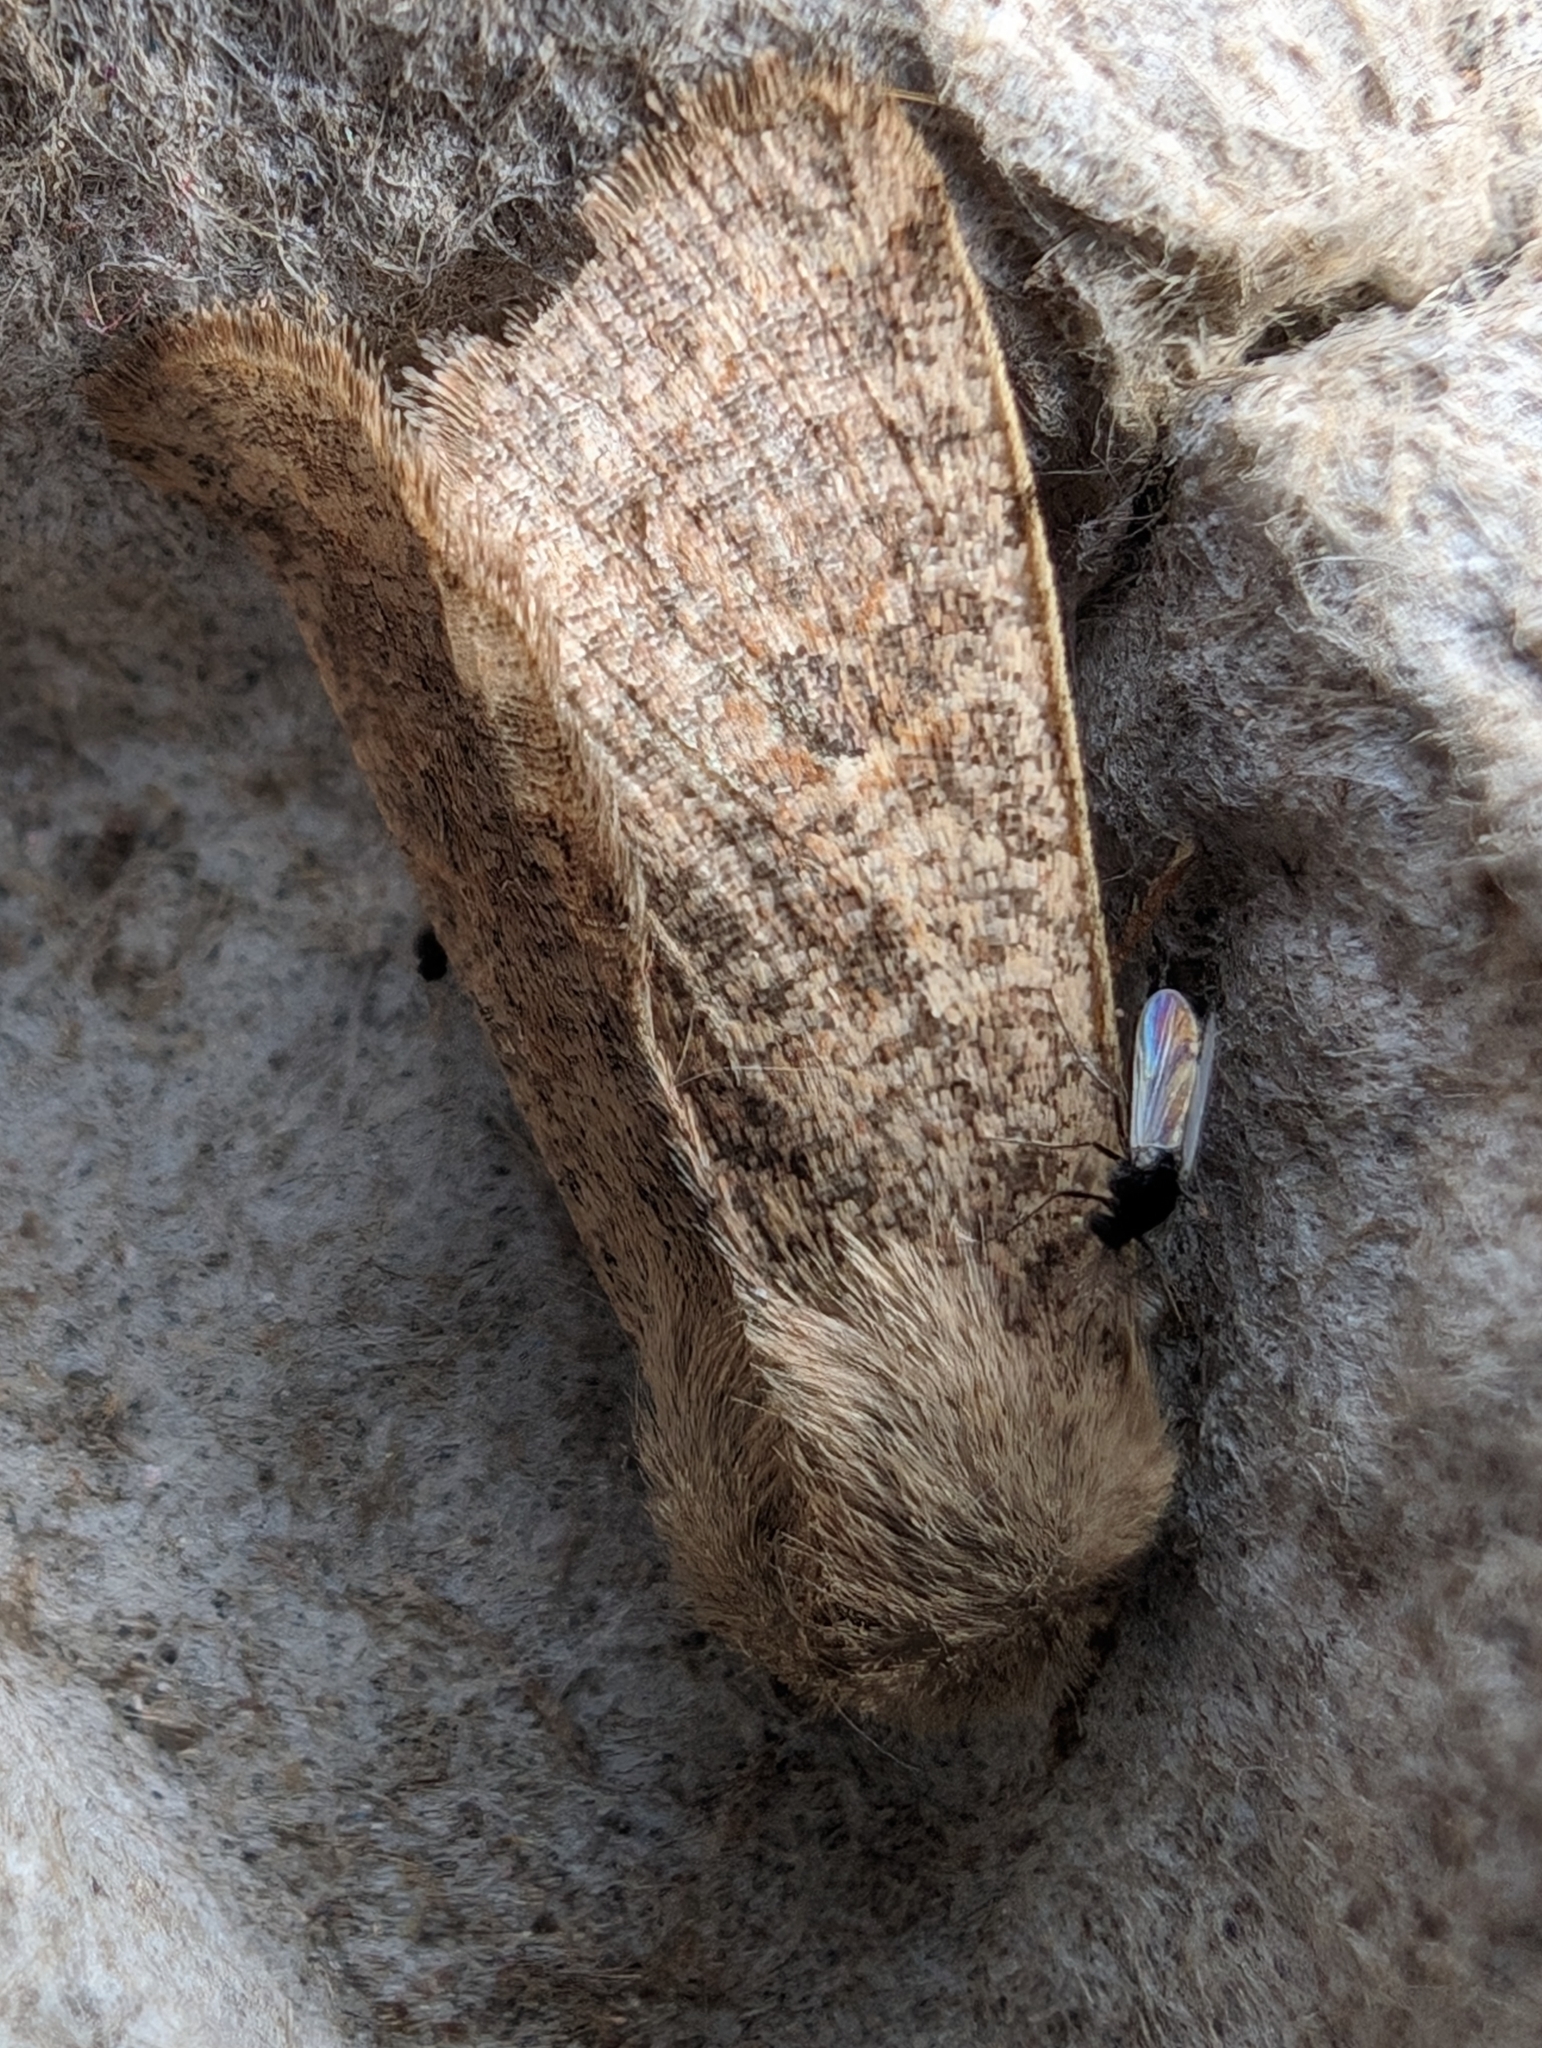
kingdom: Animalia
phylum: Arthropoda
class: Insecta
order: Lepidoptera
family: Noctuidae
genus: Orthosia
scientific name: Orthosia cruda
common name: Small quaker
